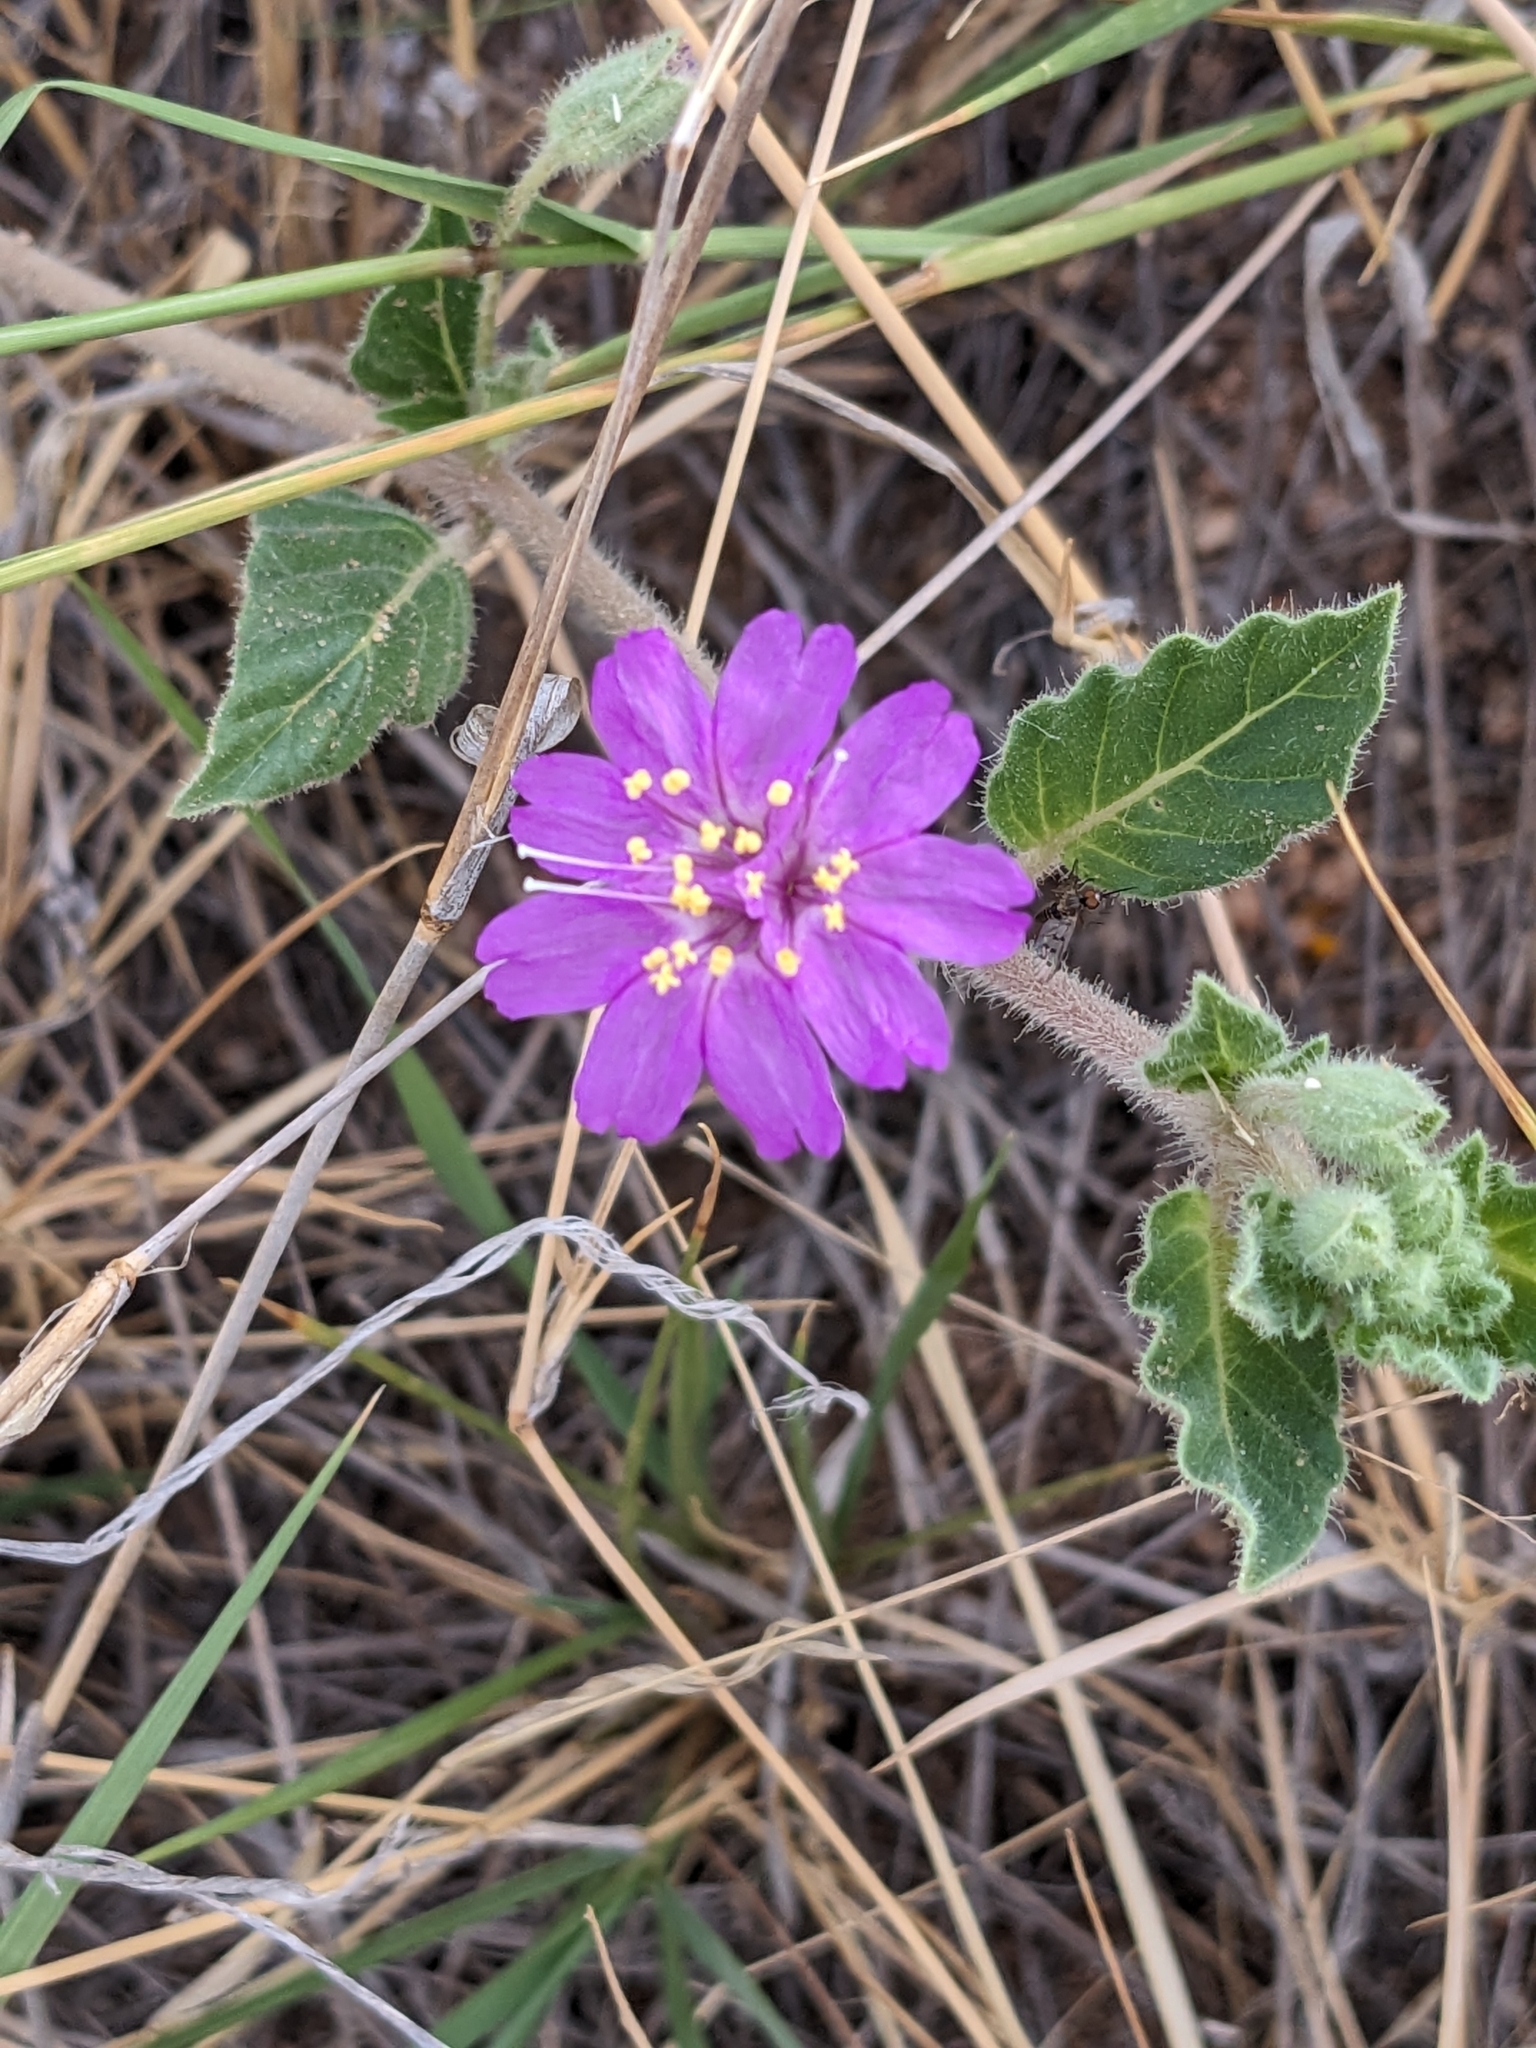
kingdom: Plantae
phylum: Tracheophyta
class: Magnoliopsida
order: Caryophyllales
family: Nyctaginaceae
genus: Allionia
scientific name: Allionia incarnata
